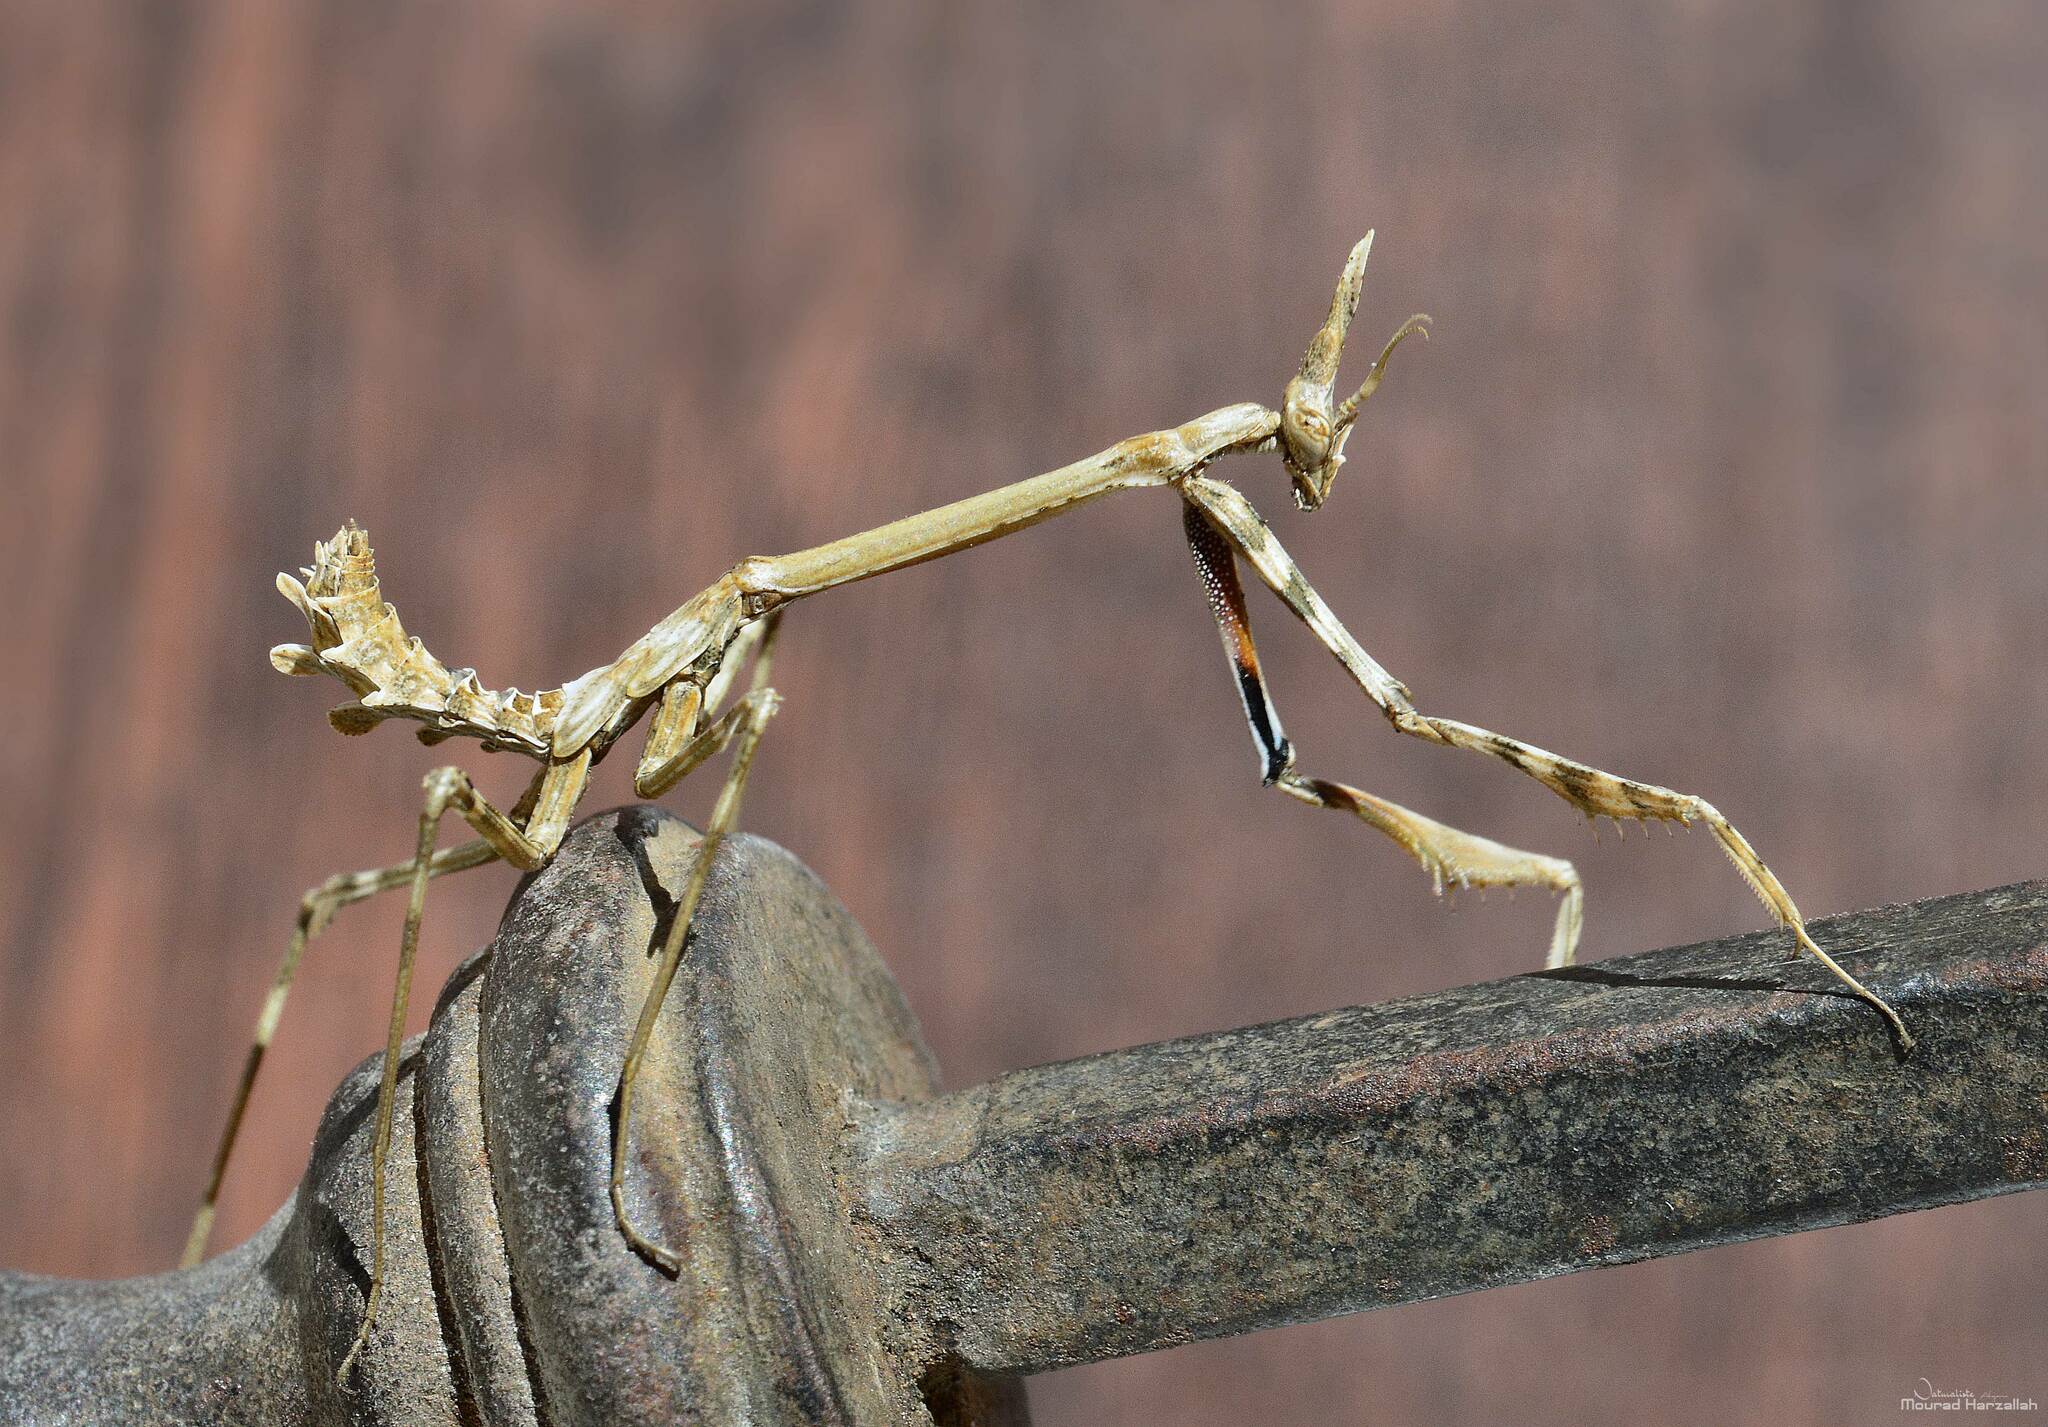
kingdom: Animalia
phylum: Arthropoda
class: Insecta
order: Mantodea
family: Empusidae
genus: Empusa
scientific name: Empusa pennata
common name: Conehead mantis
